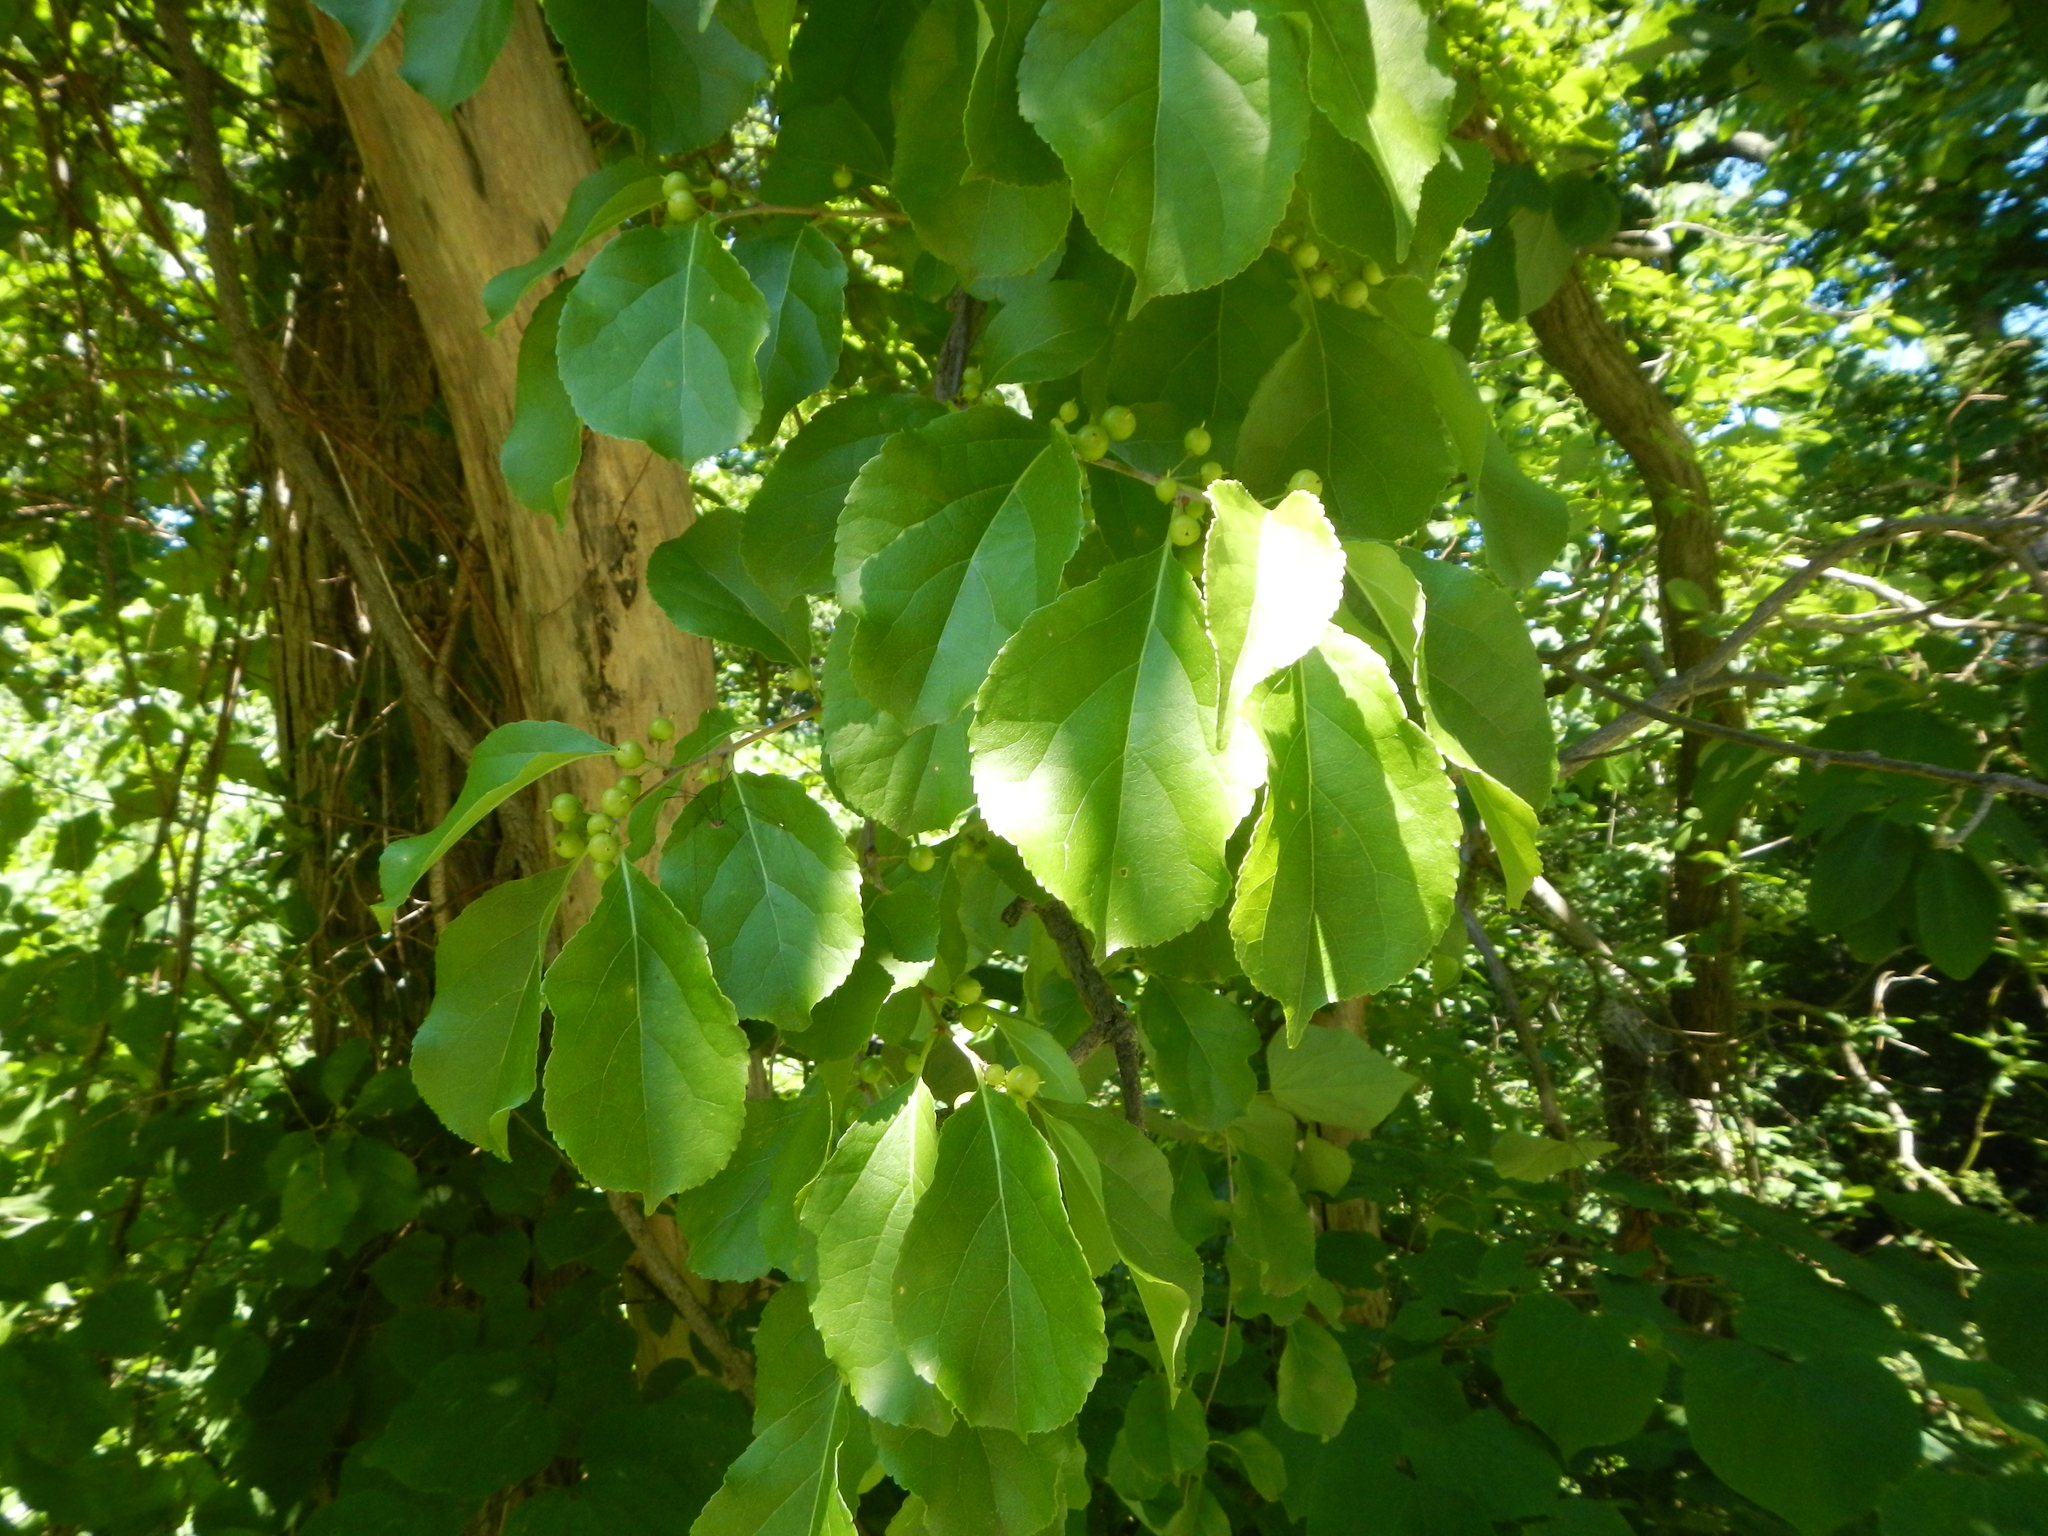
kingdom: Plantae
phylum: Tracheophyta
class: Magnoliopsida
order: Celastrales
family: Celastraceae
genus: Celastrus
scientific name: Celastrus orbiculatus
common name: Oriental bittersweet
